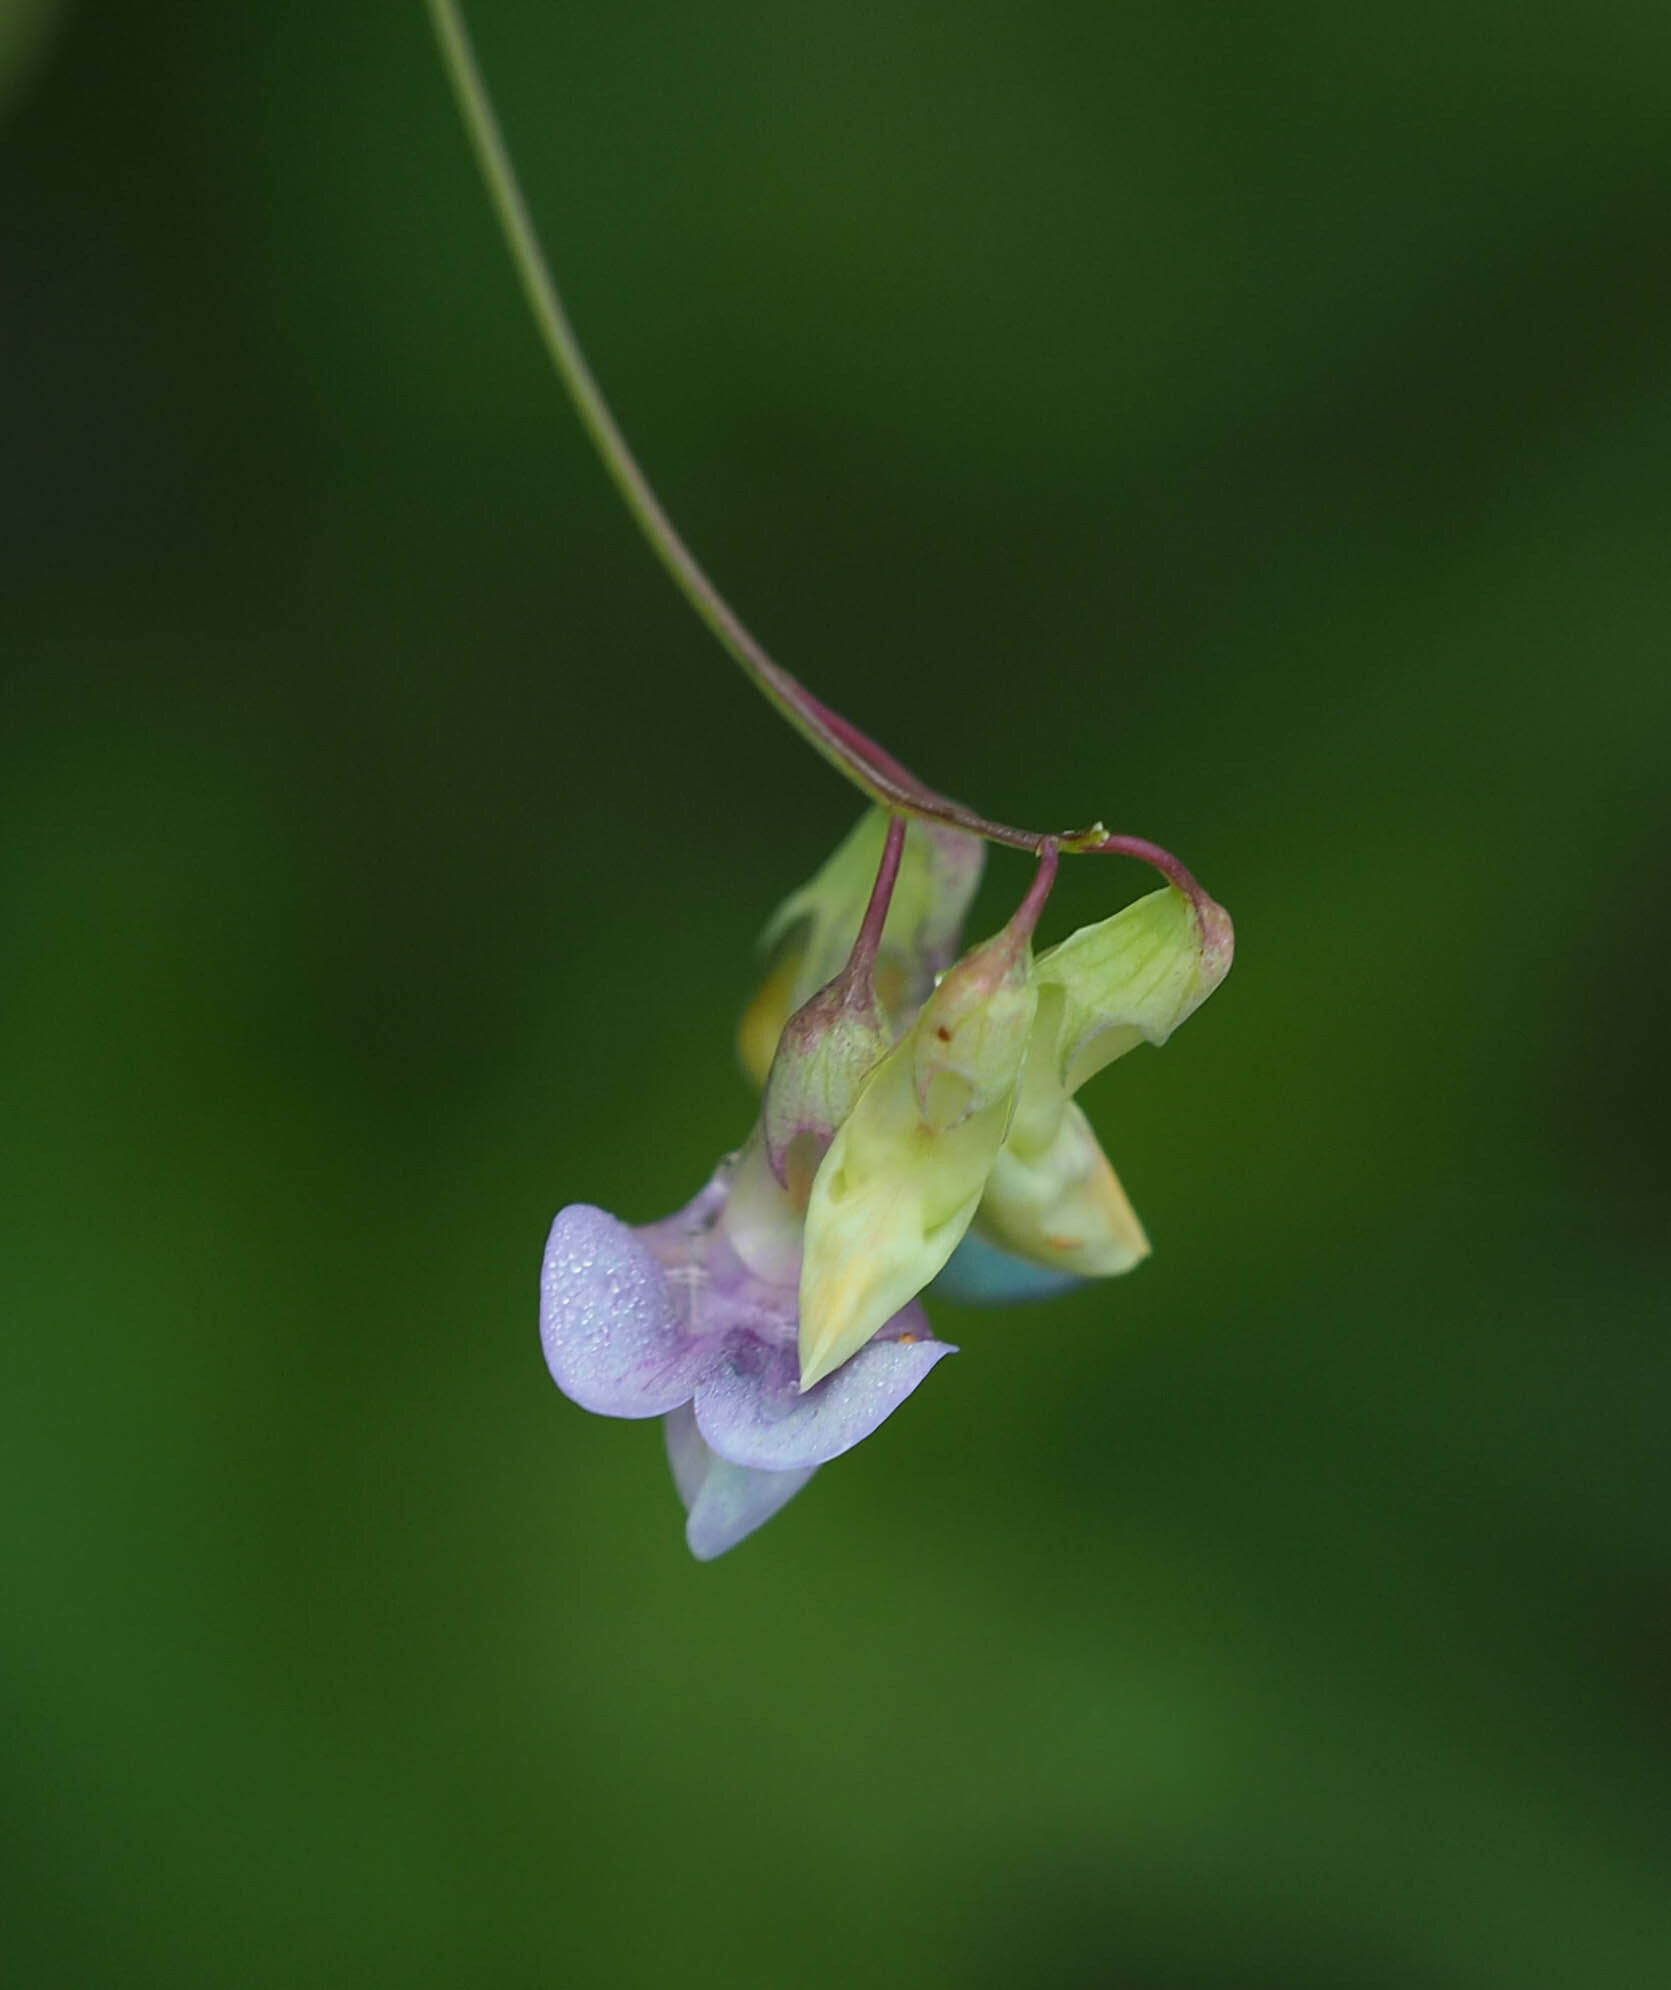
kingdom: Plantae
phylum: Tracheophyta
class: Magnoliopsida
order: Fabales
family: Fabaceae
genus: Lathyrus
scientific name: Lathyrus palustris
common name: Marsh pea
